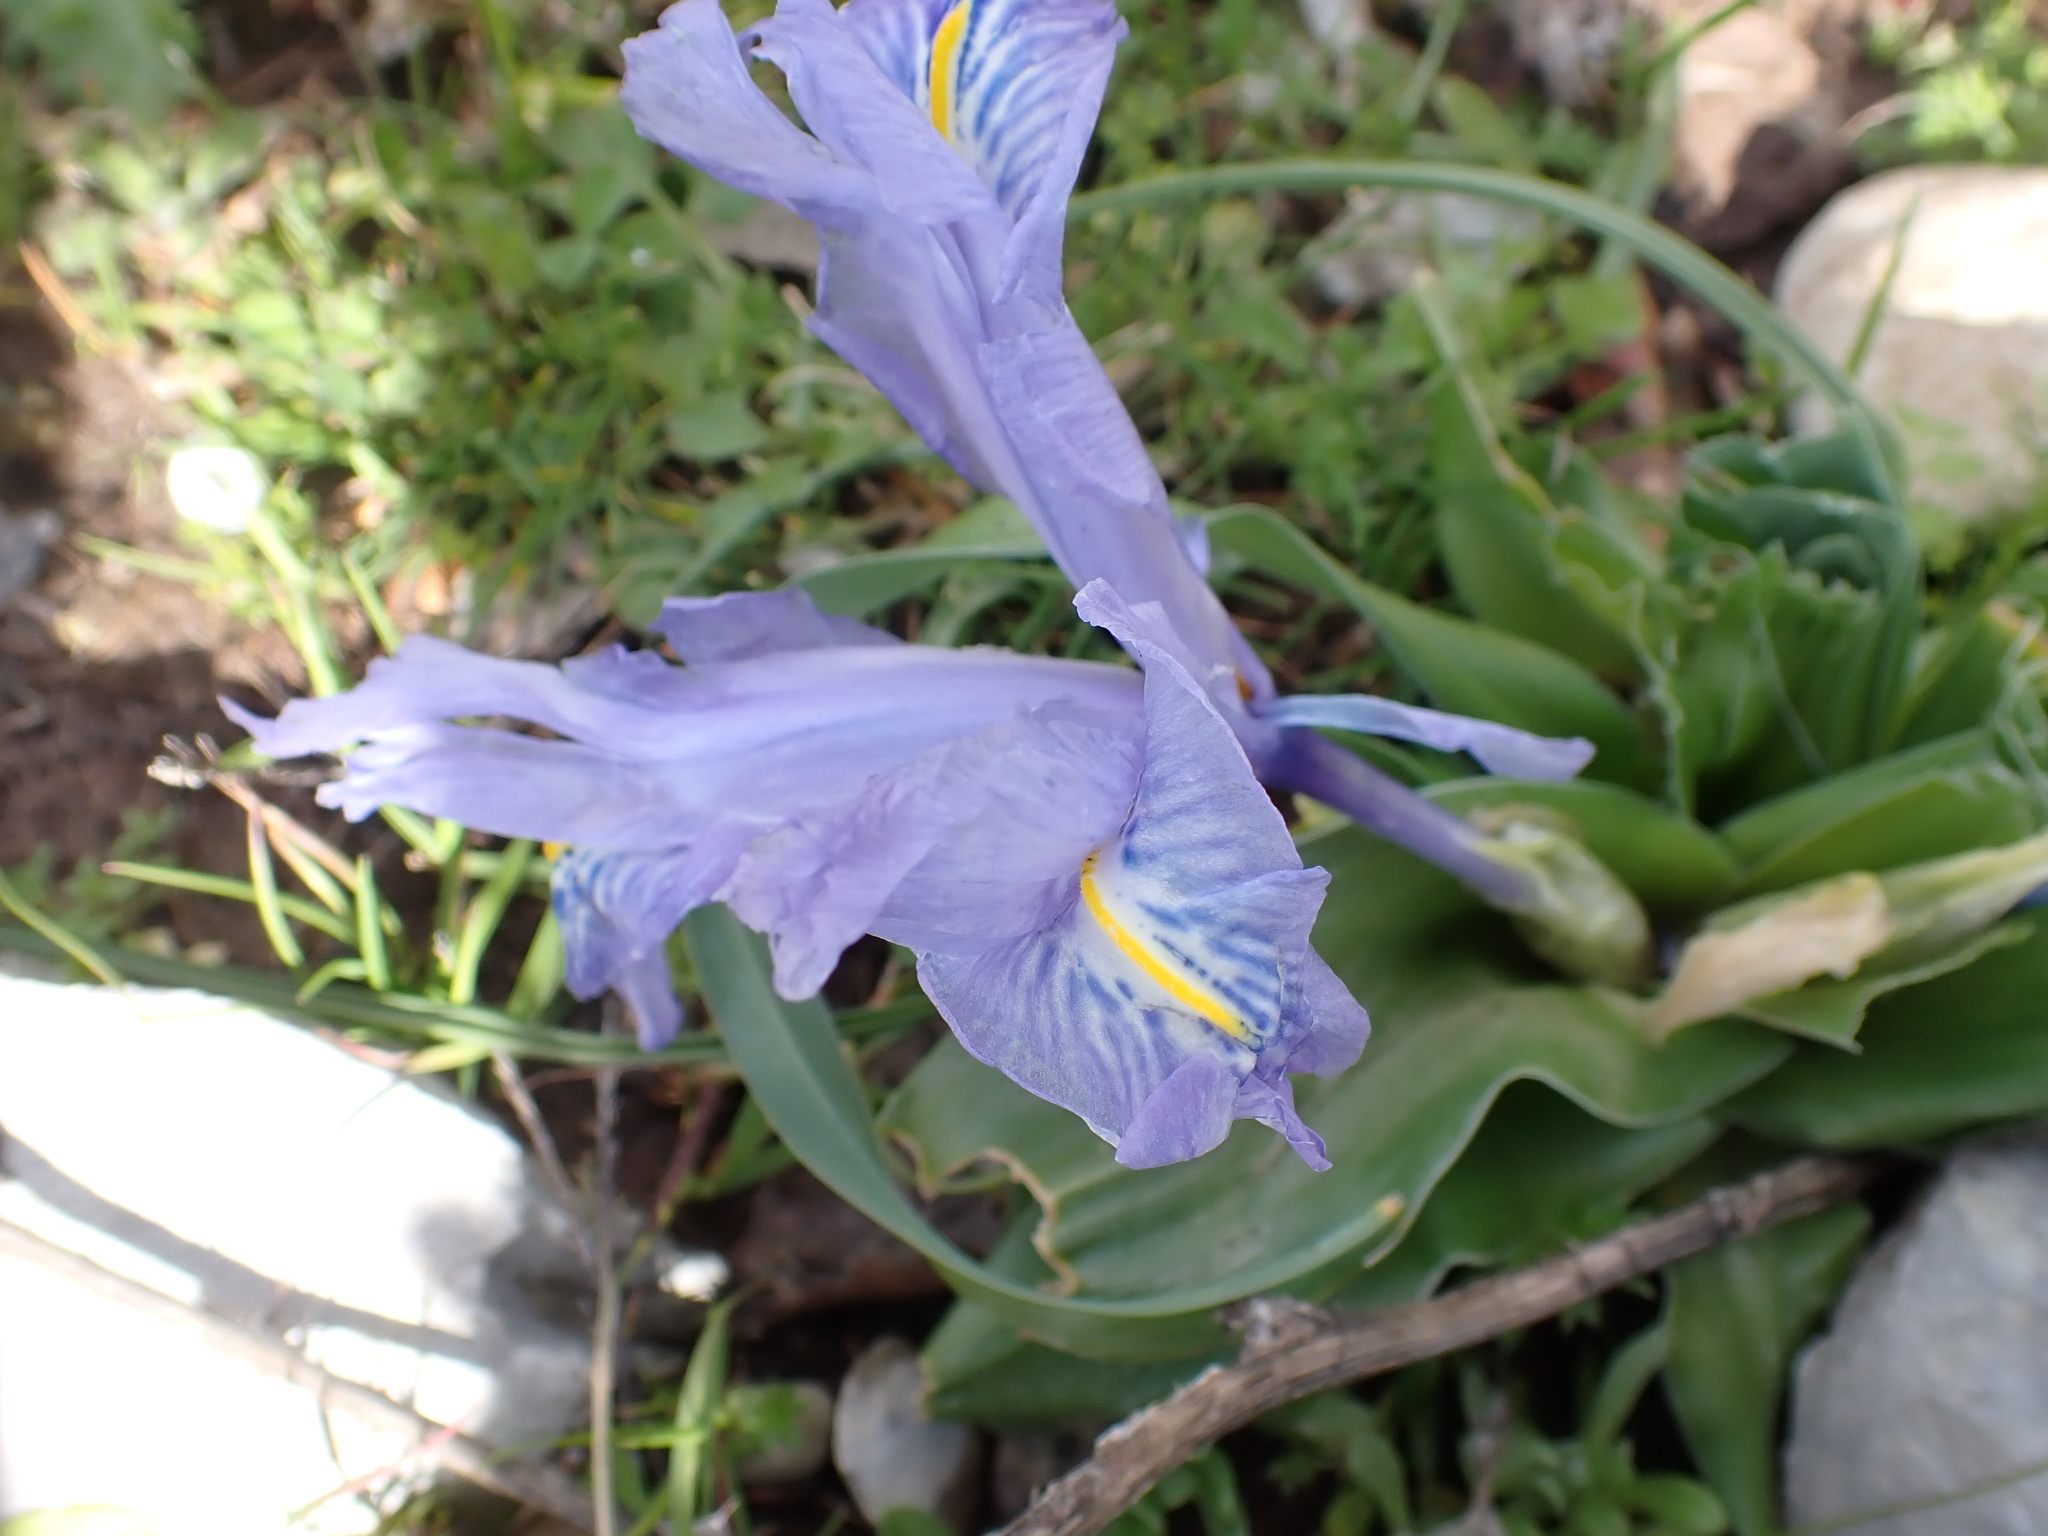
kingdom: Plantae
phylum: Tracheophyta
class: Liliopsida
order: Asparagales
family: Iridaceae
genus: Iris
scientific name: Iris planifolia
